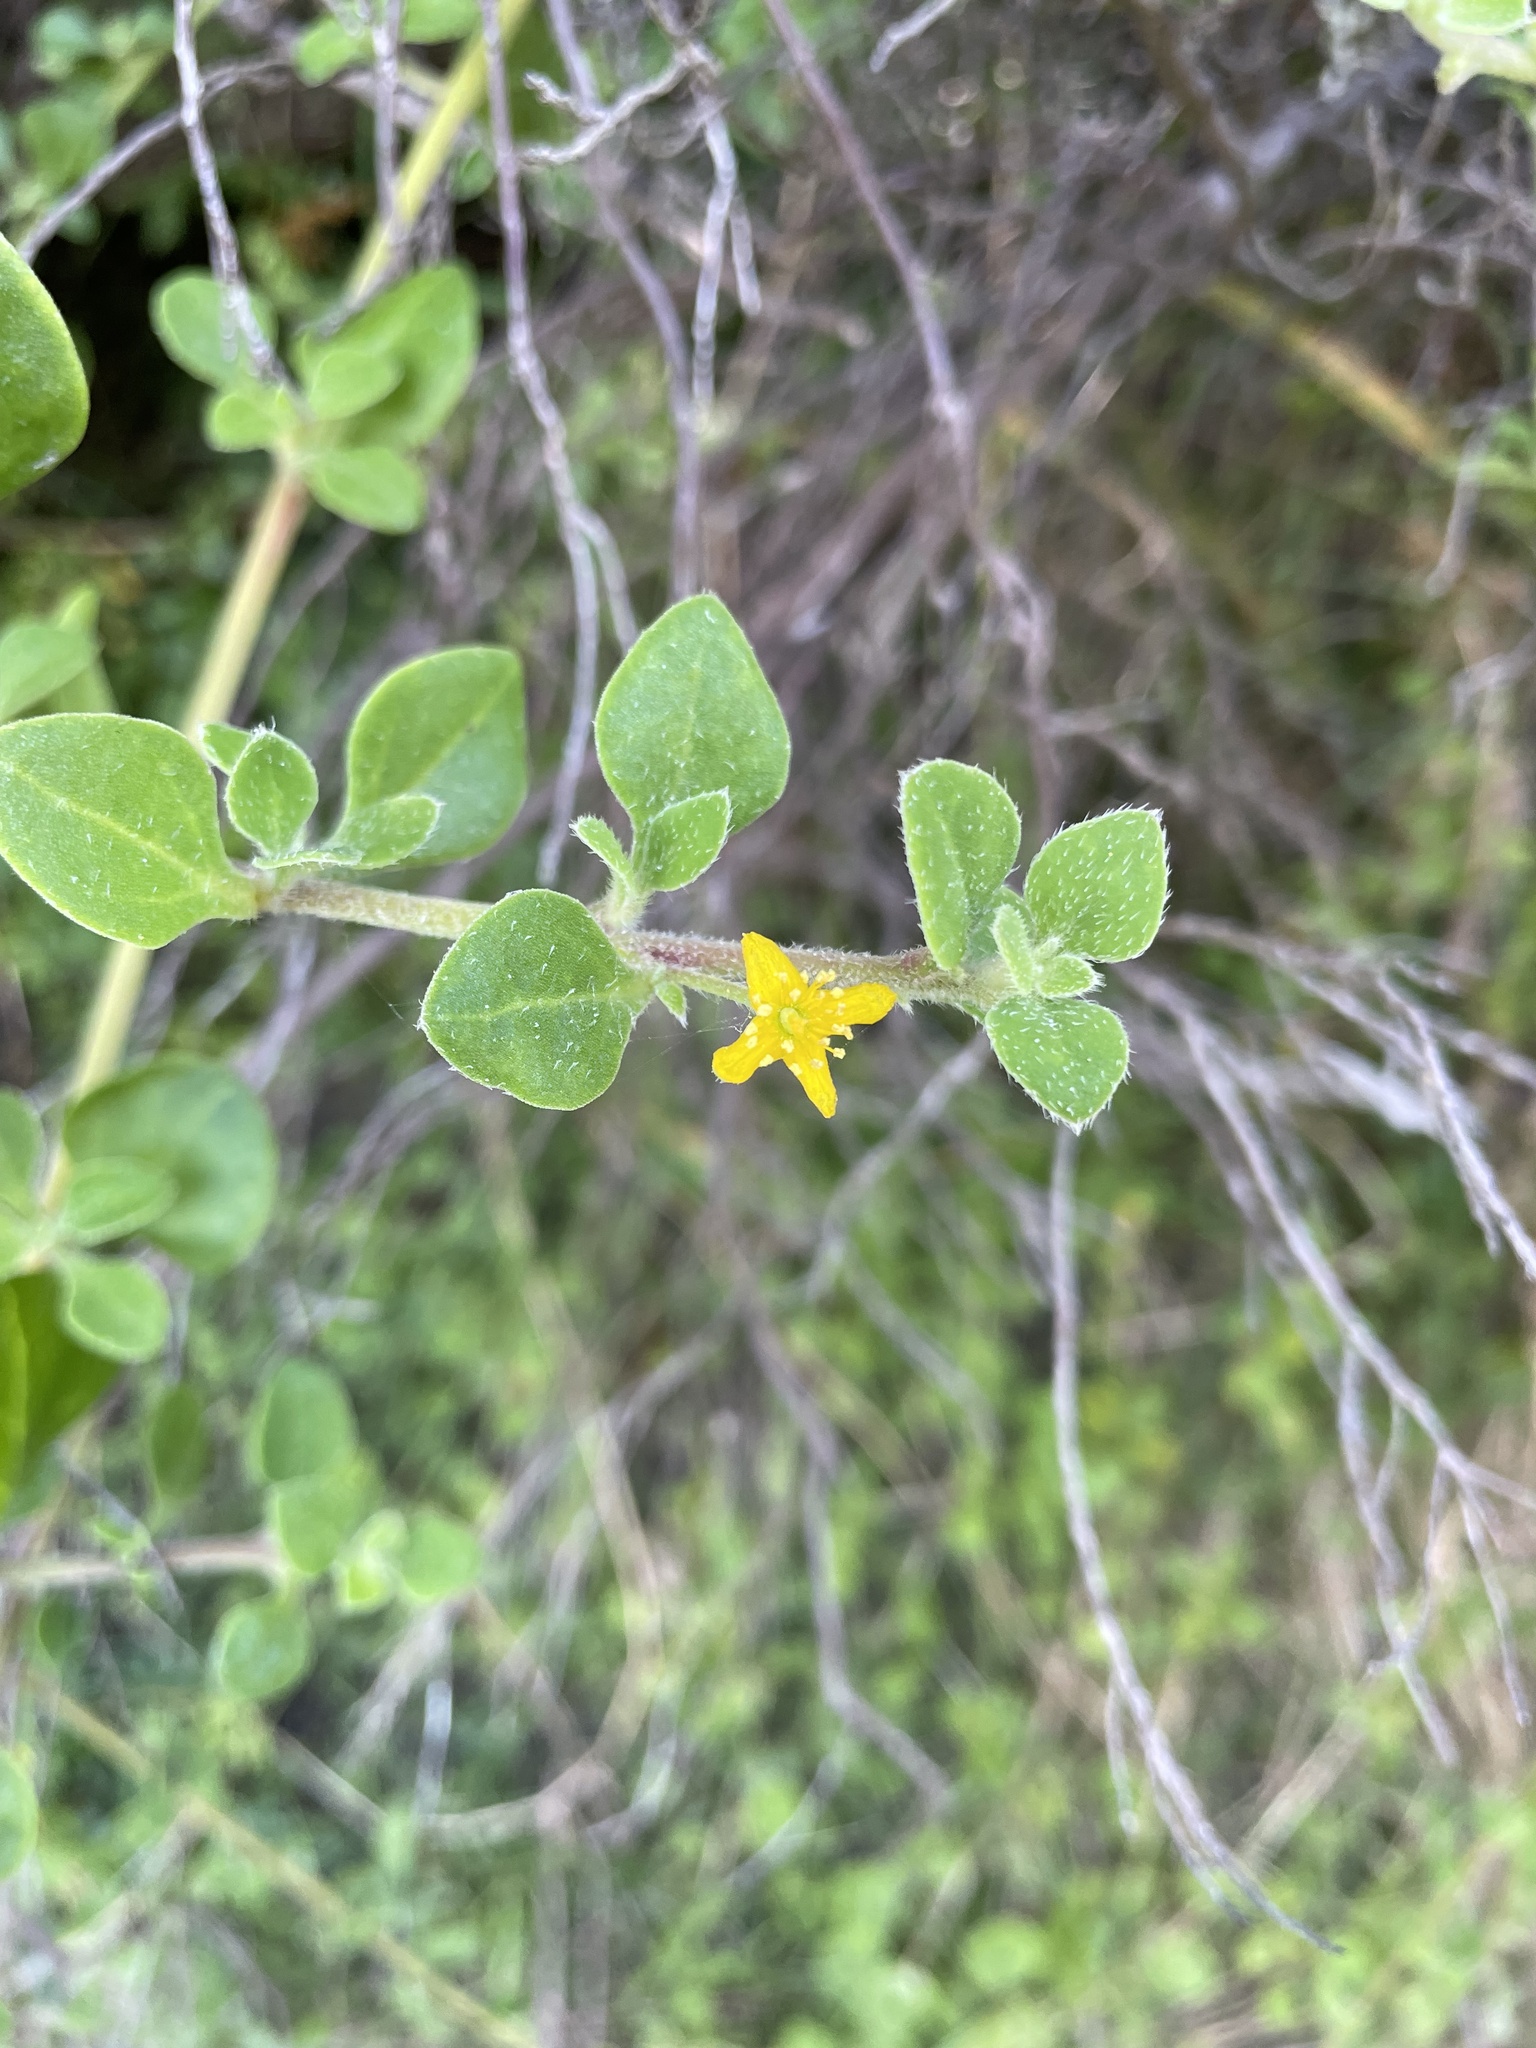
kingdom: Plantae
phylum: Tracheophyta
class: Magnoliopsida
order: Caryophyllales
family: Aizoaceae
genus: Tetragonia
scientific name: Tetragonia implexicoma
